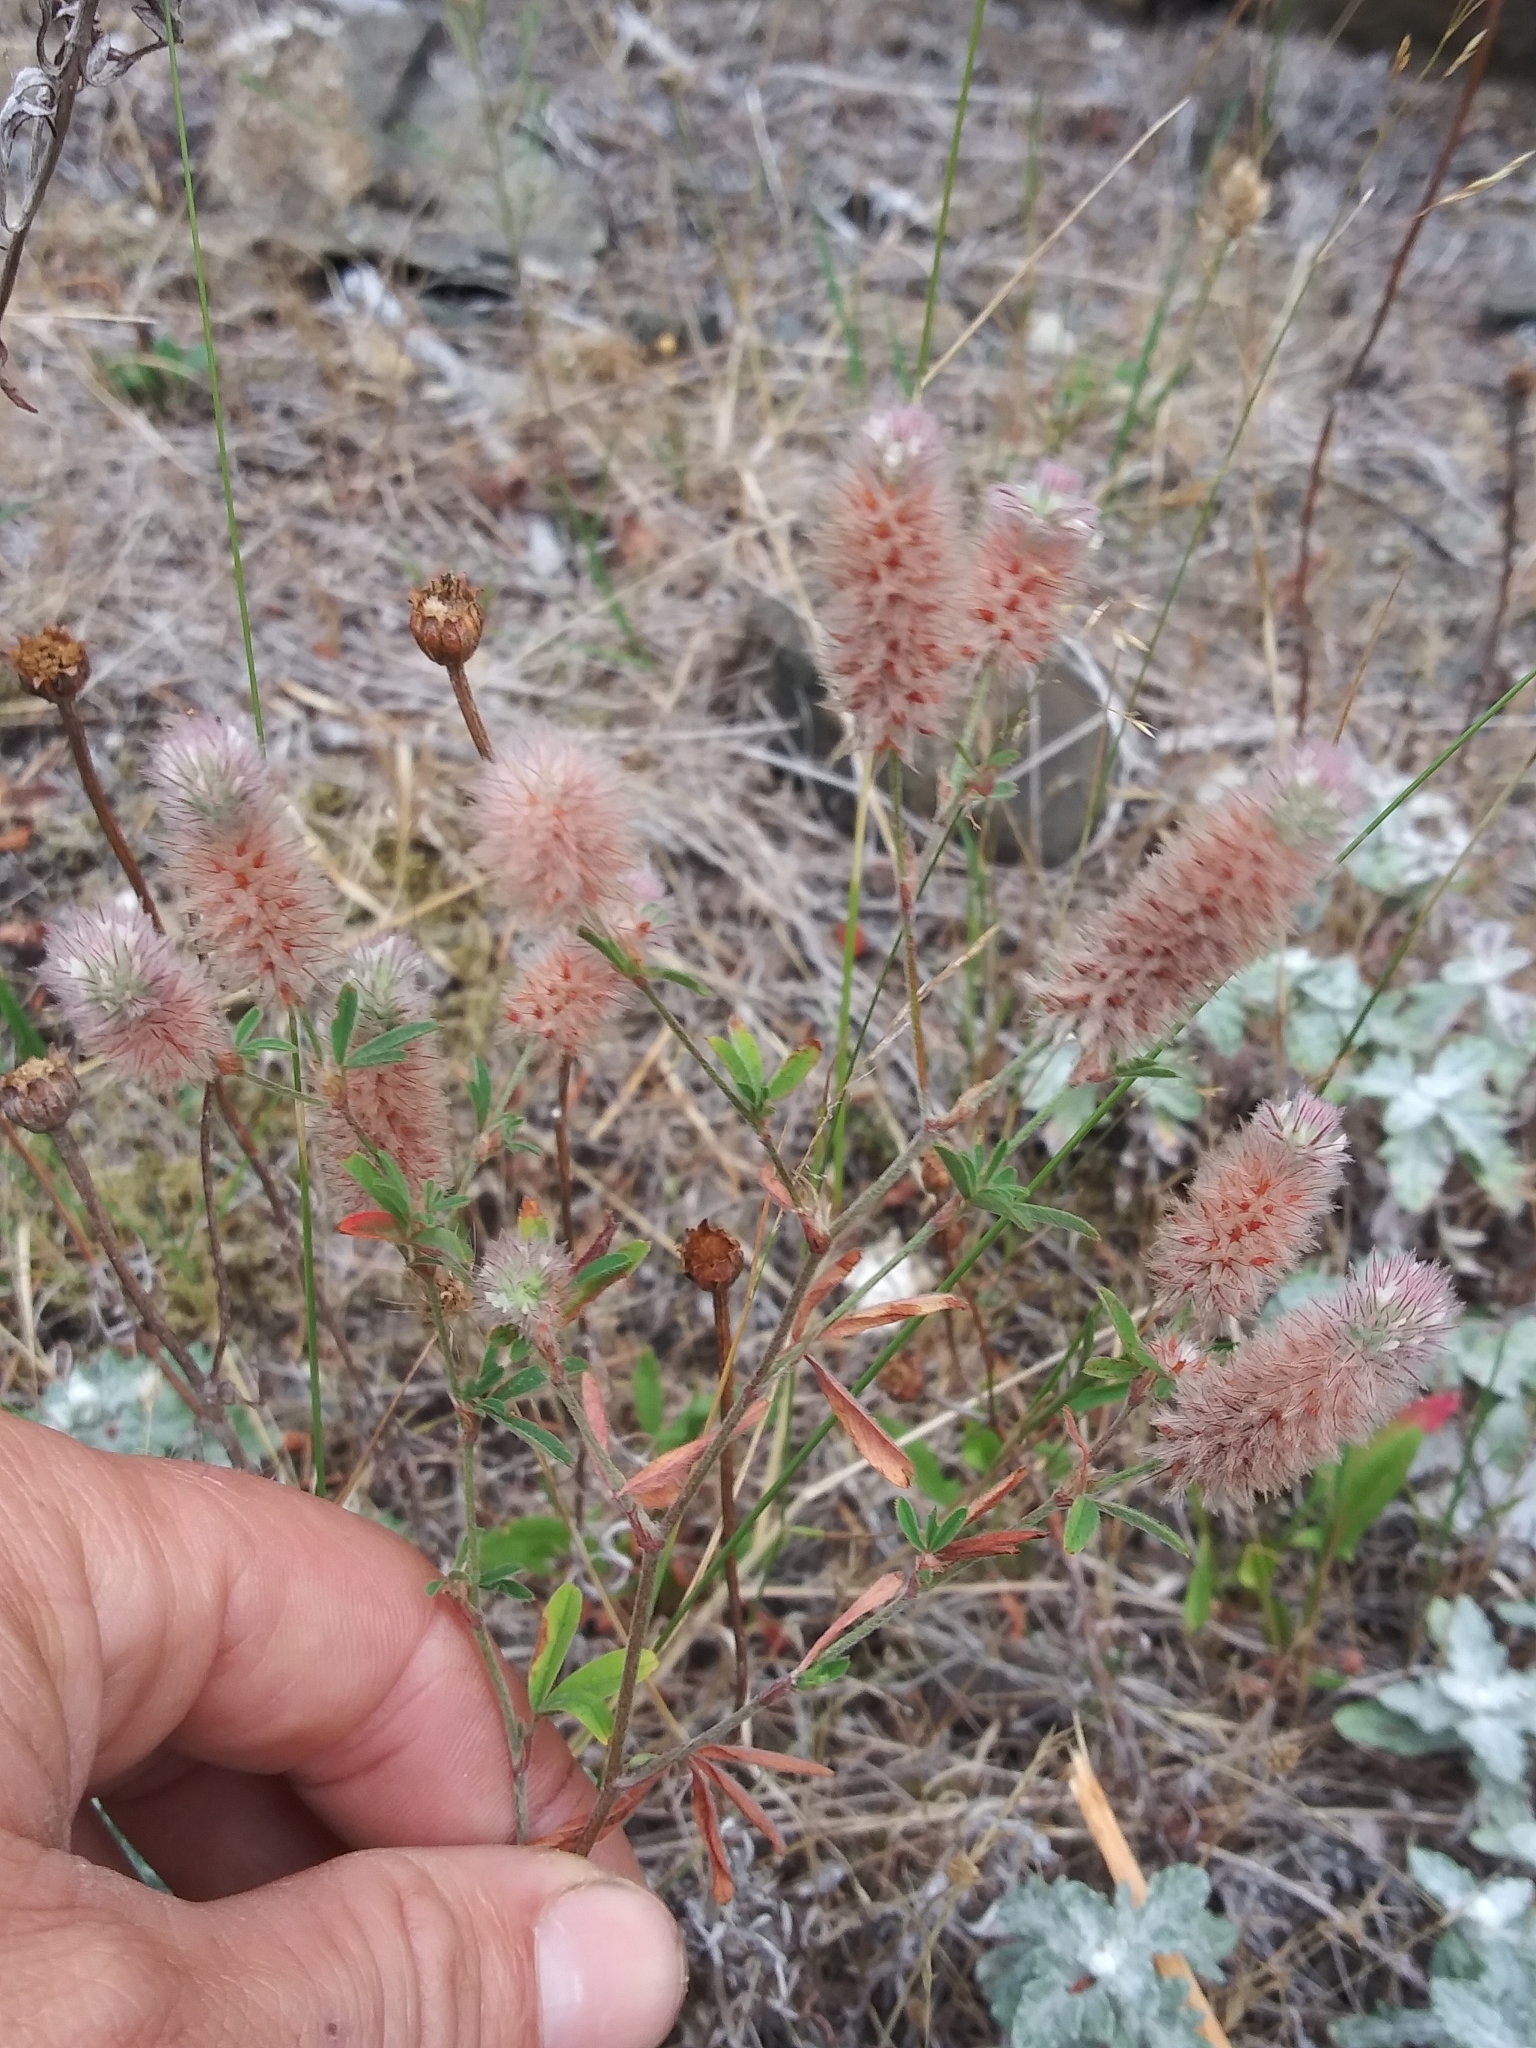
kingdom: Plantae
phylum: Tracheophyta
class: Magnoliopsida
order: Fabales
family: Fabaceae
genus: Trifolium
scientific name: Trifolium arvense
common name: Hare's-foot clover
